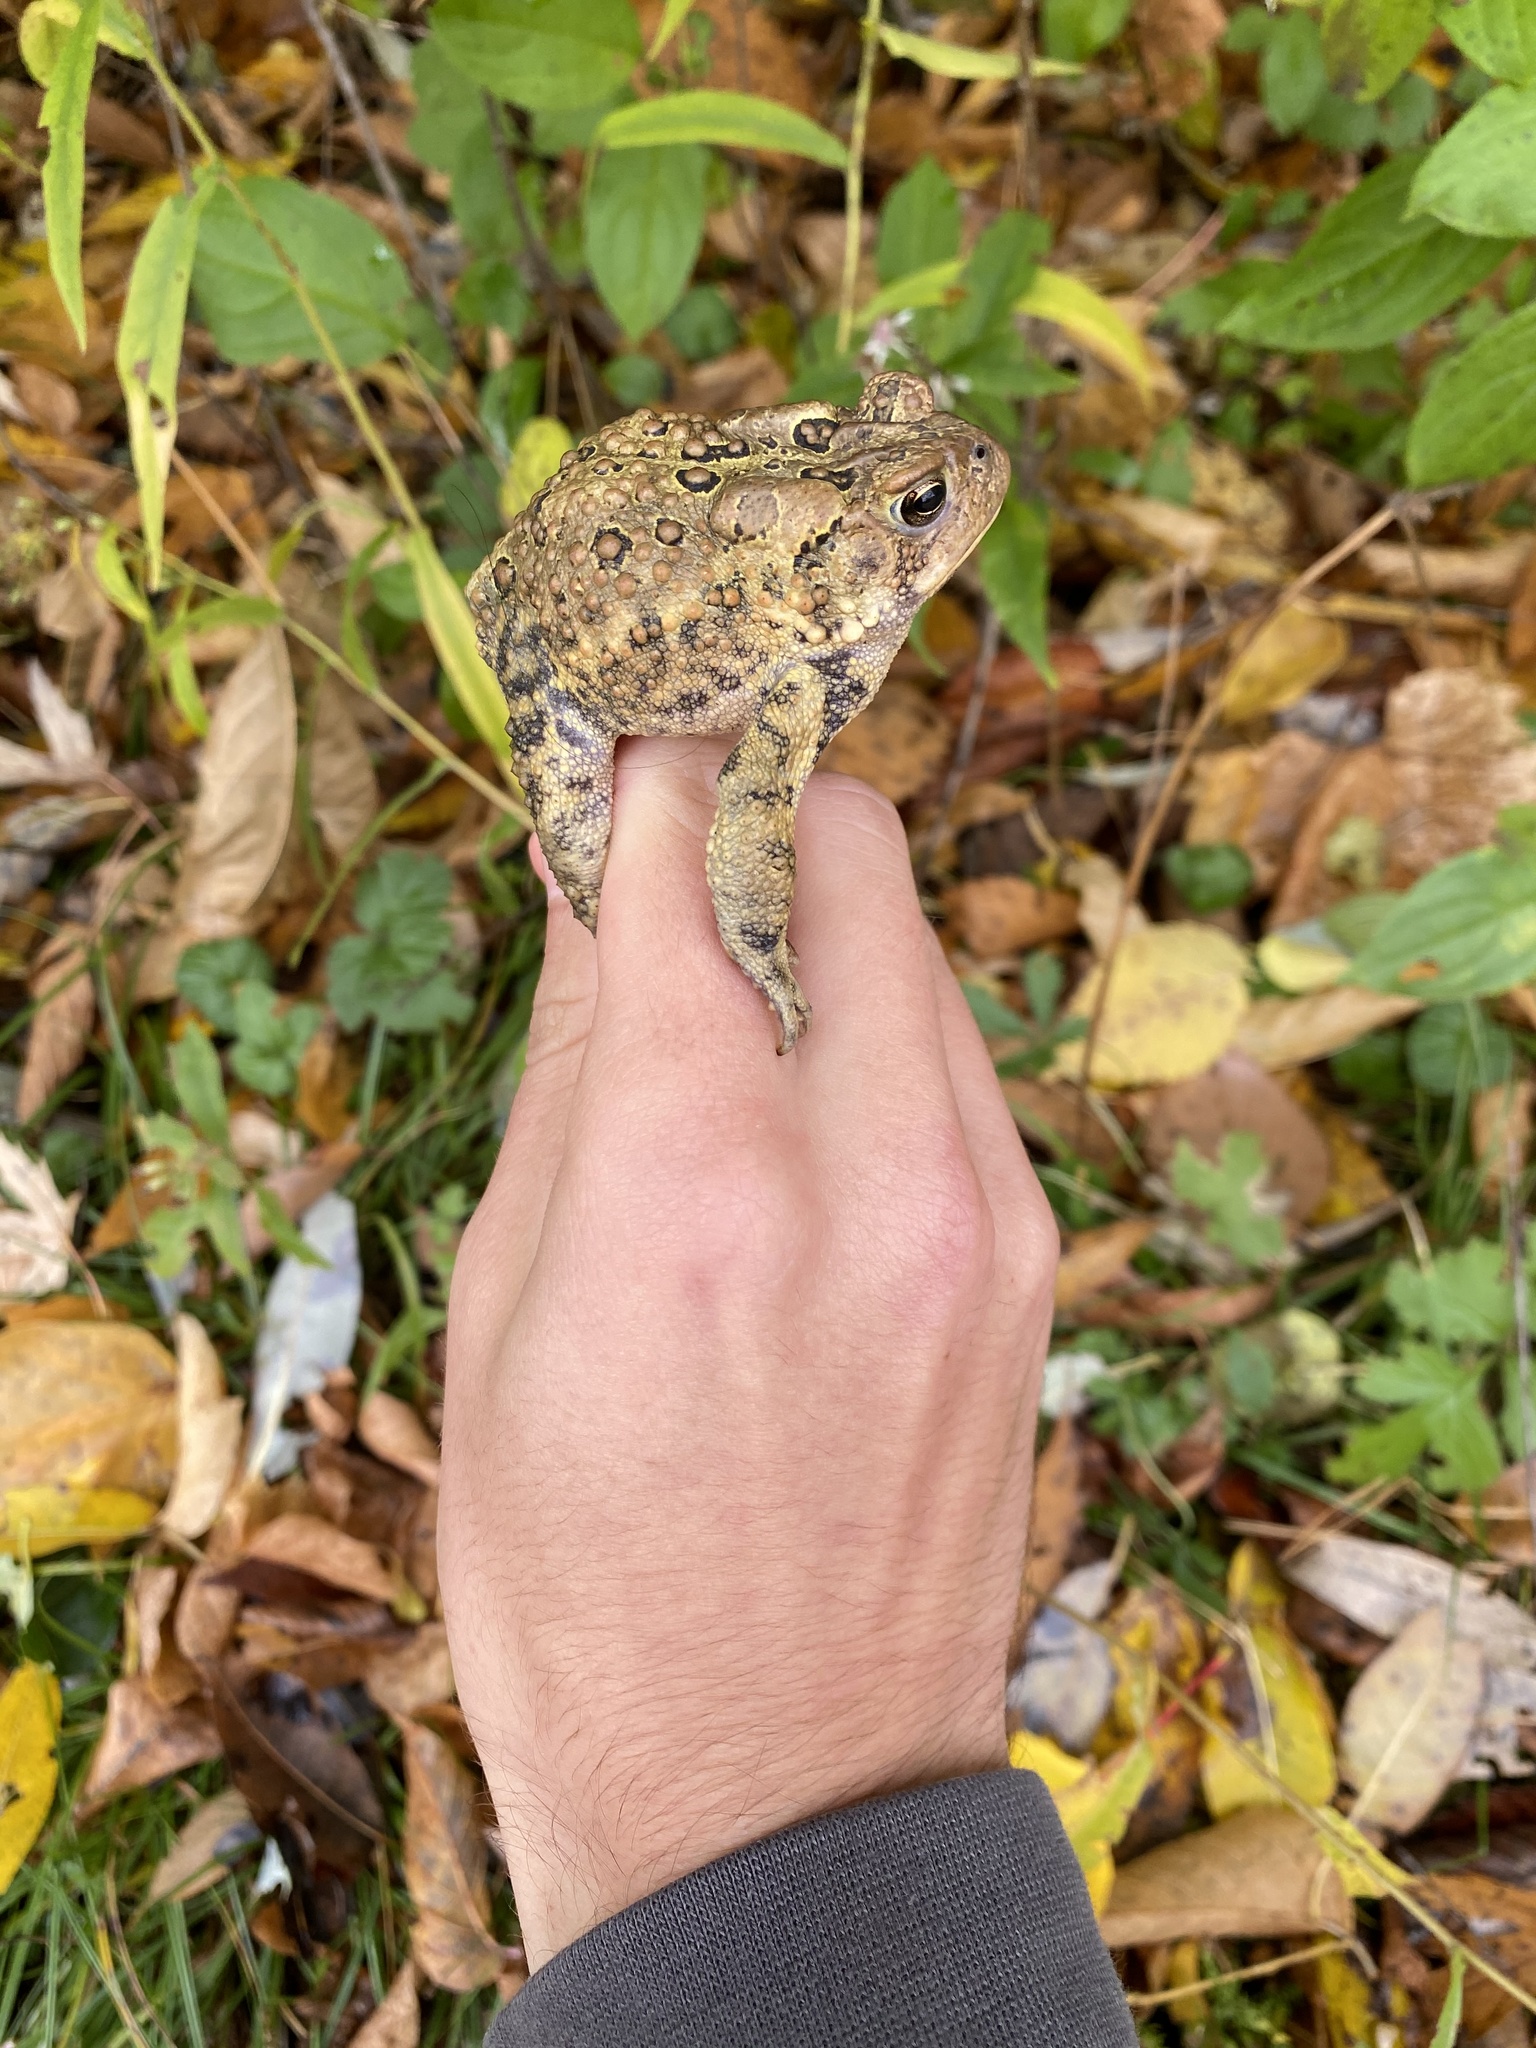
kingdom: Animalia
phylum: Chordata
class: Amphibia
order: Anura
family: Bufonidae
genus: Anaxyrus
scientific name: Anaxyrus americanus
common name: American toad
